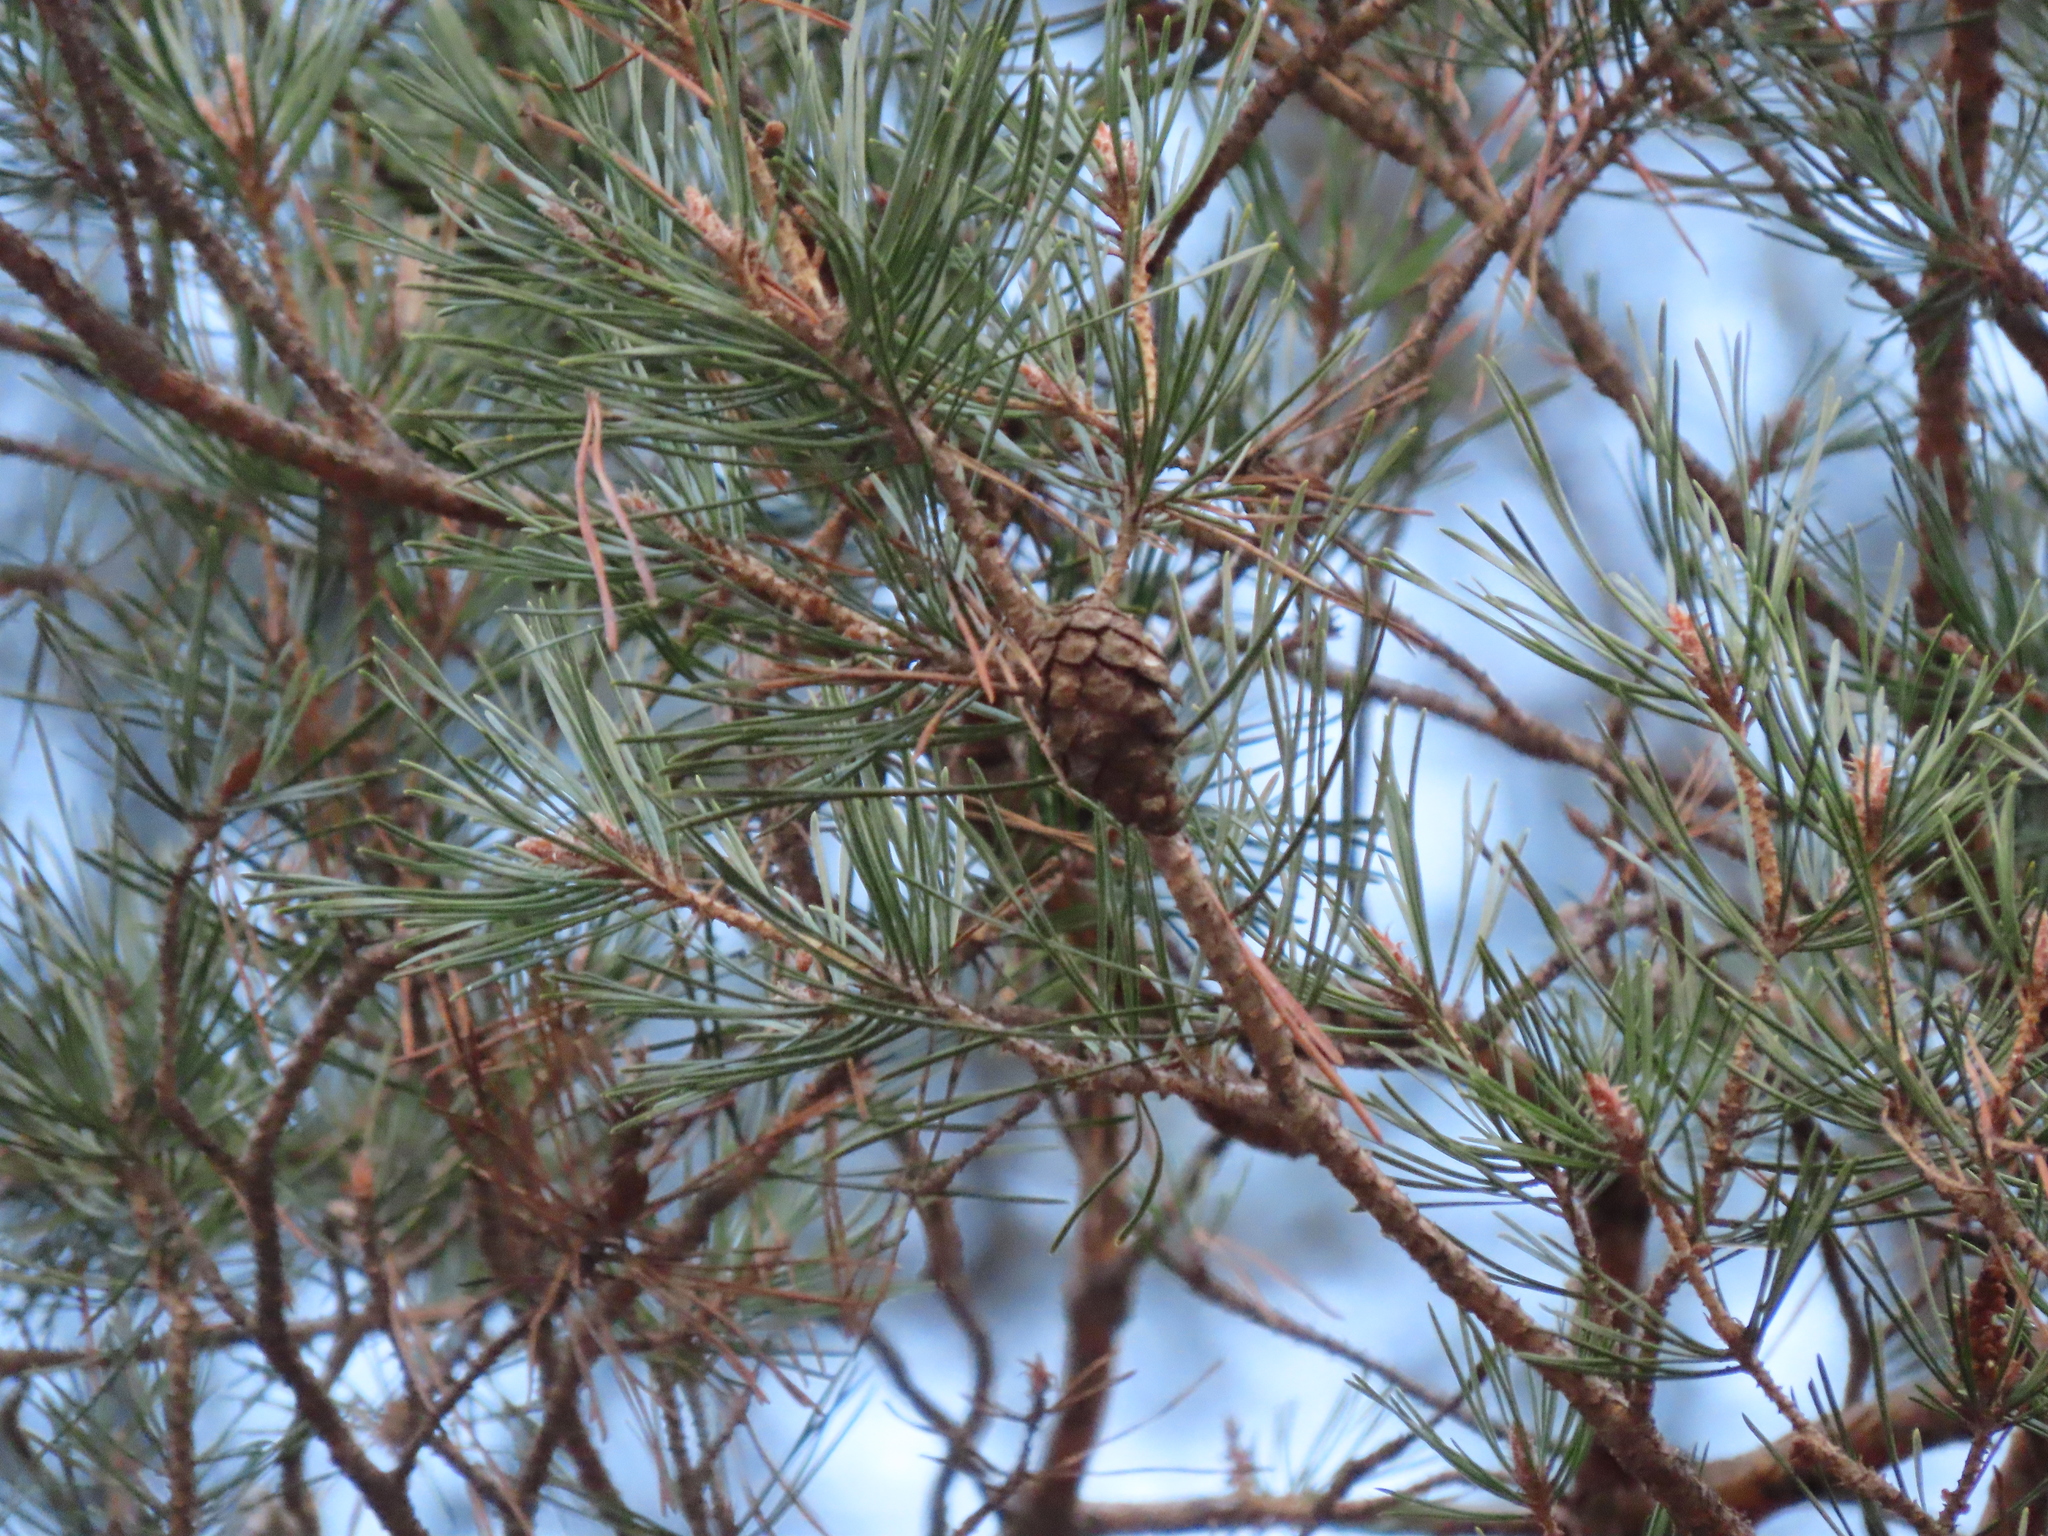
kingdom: Plantae
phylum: Tracheophyta
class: Pinopsida
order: Pinales
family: Pinaceae
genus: Pinus
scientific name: Pinus sylvestris
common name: Scots pine
